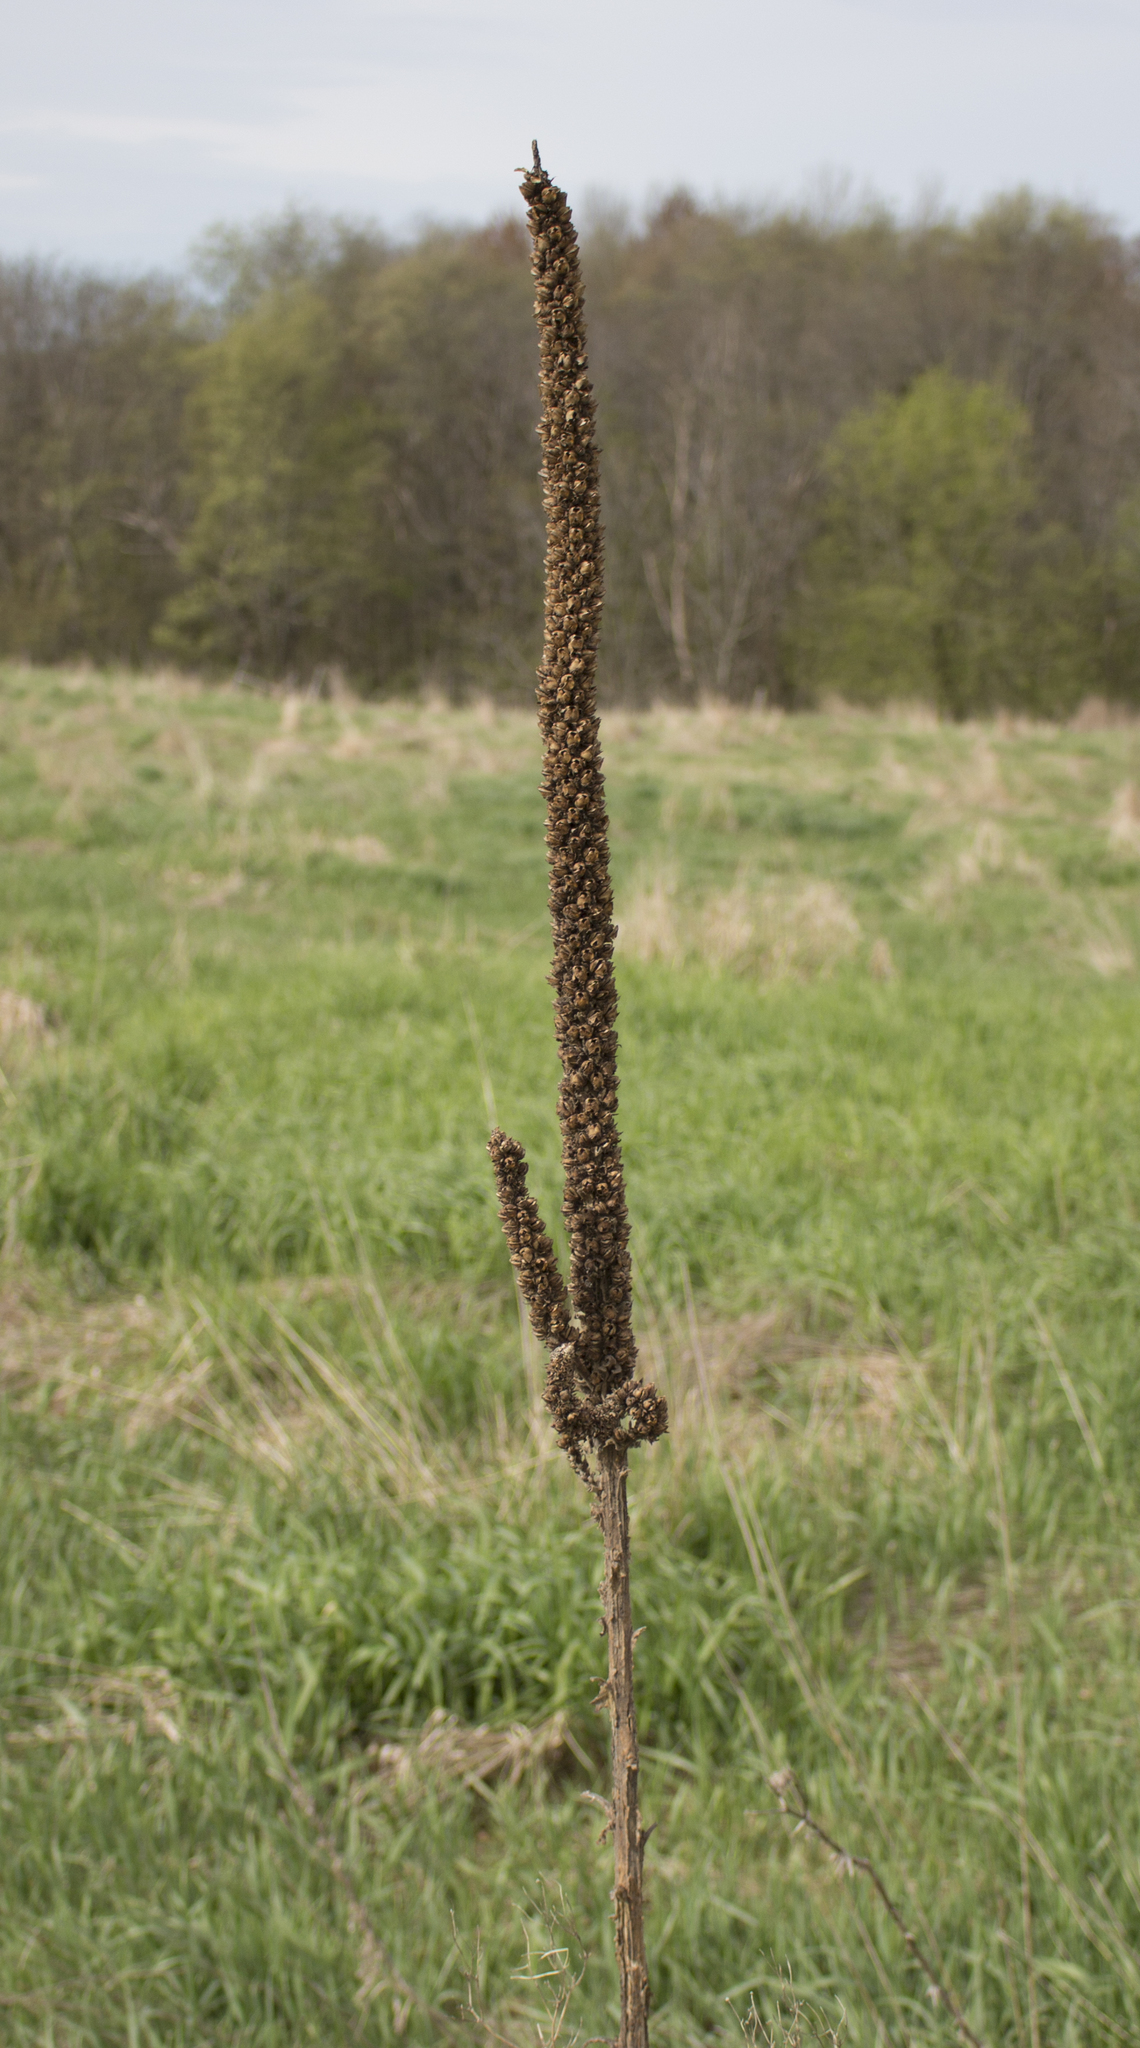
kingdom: Plantae
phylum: Tracheophyta
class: Magnoliopsida
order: Lamiales
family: Scrophulariaceae
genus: Verbascum
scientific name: Verbascum thapsus
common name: Common mullein
